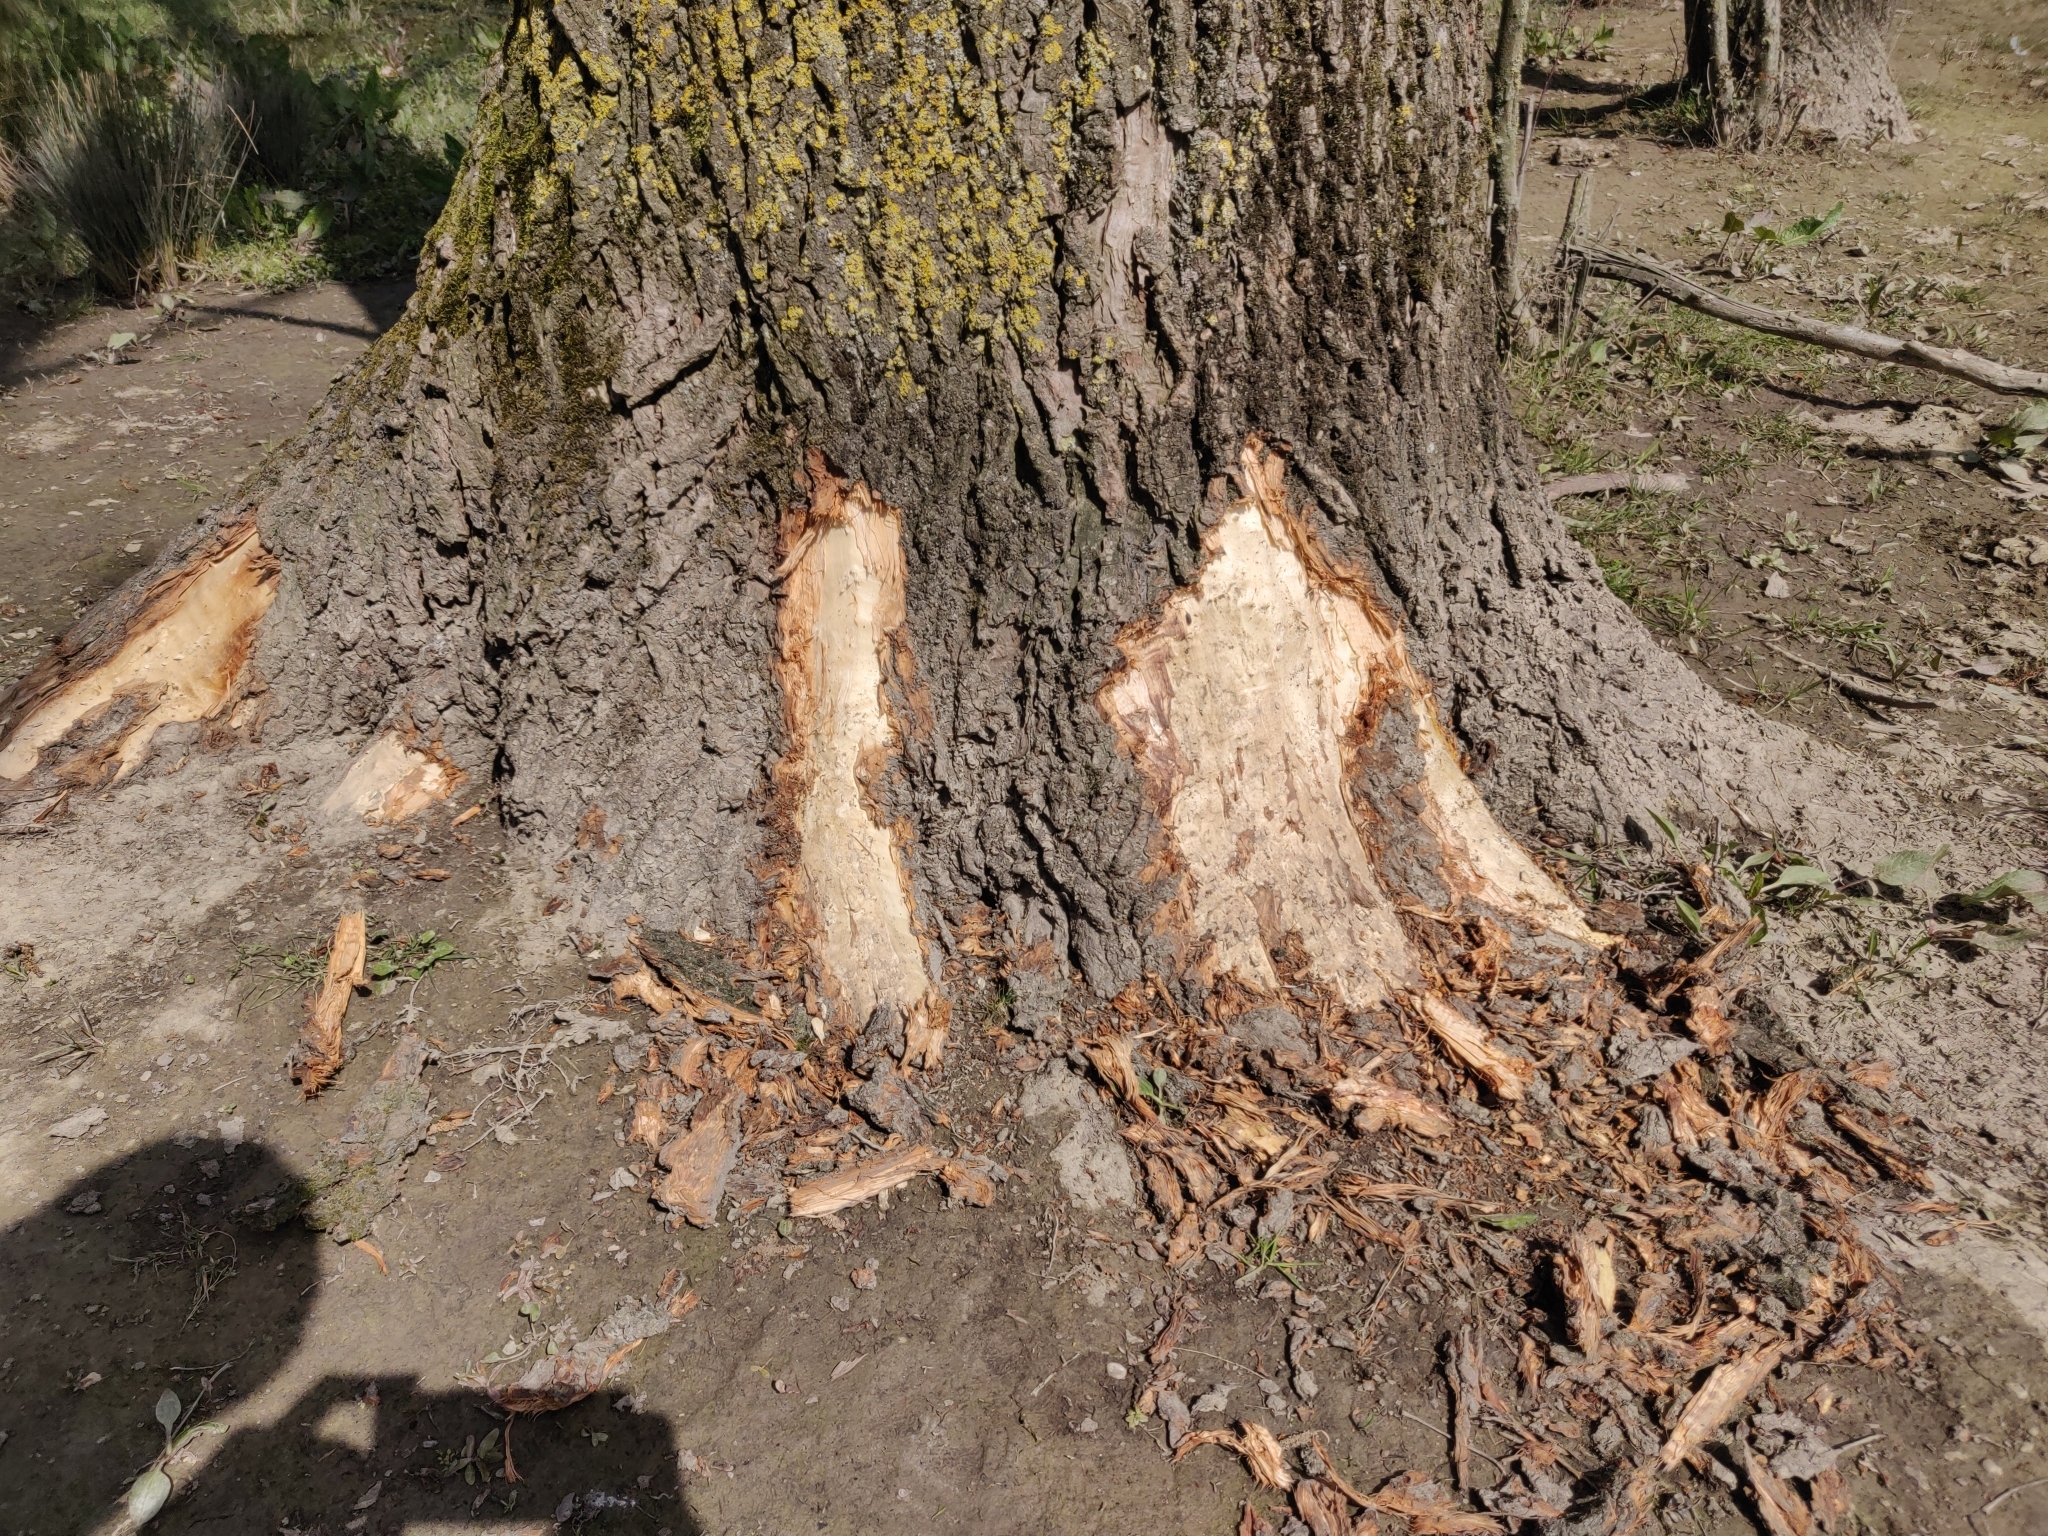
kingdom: Animalia
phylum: Chordata
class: Mammalia
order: Rodentia
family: Castoridae
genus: Castor
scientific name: Castor fiber
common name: Eurasian beaver
